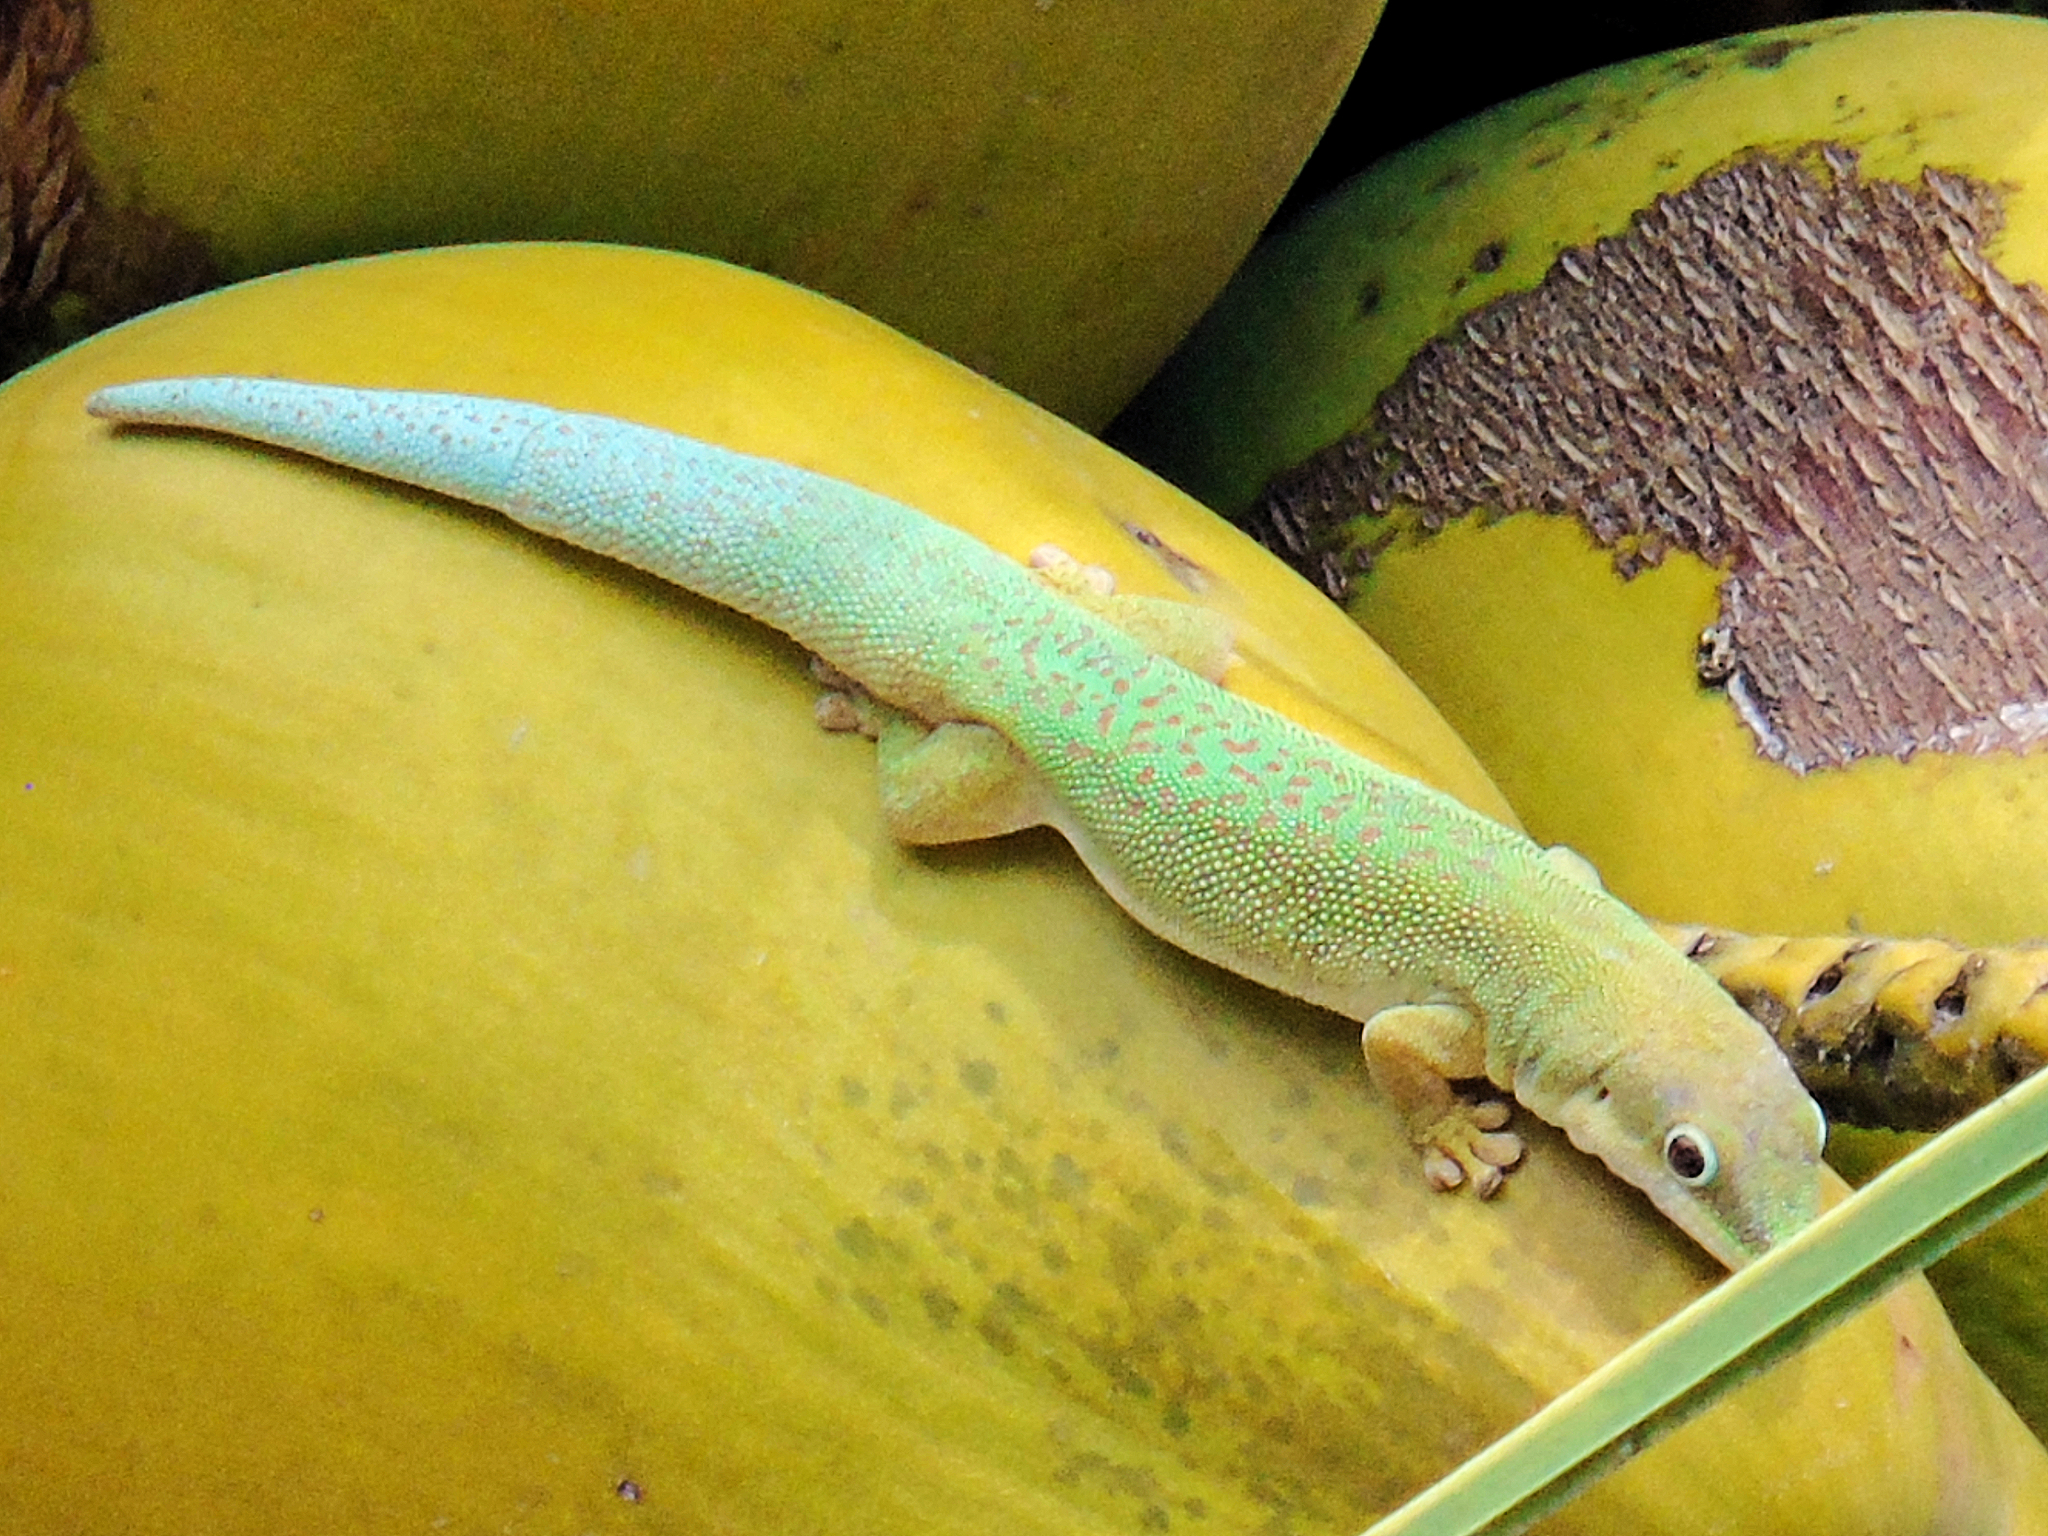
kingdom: Animalia
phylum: Chordata
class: Squamata
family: Gekkonidae
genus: Phelsuma
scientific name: Phelsuma dubia
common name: Zanzibar day gecko
